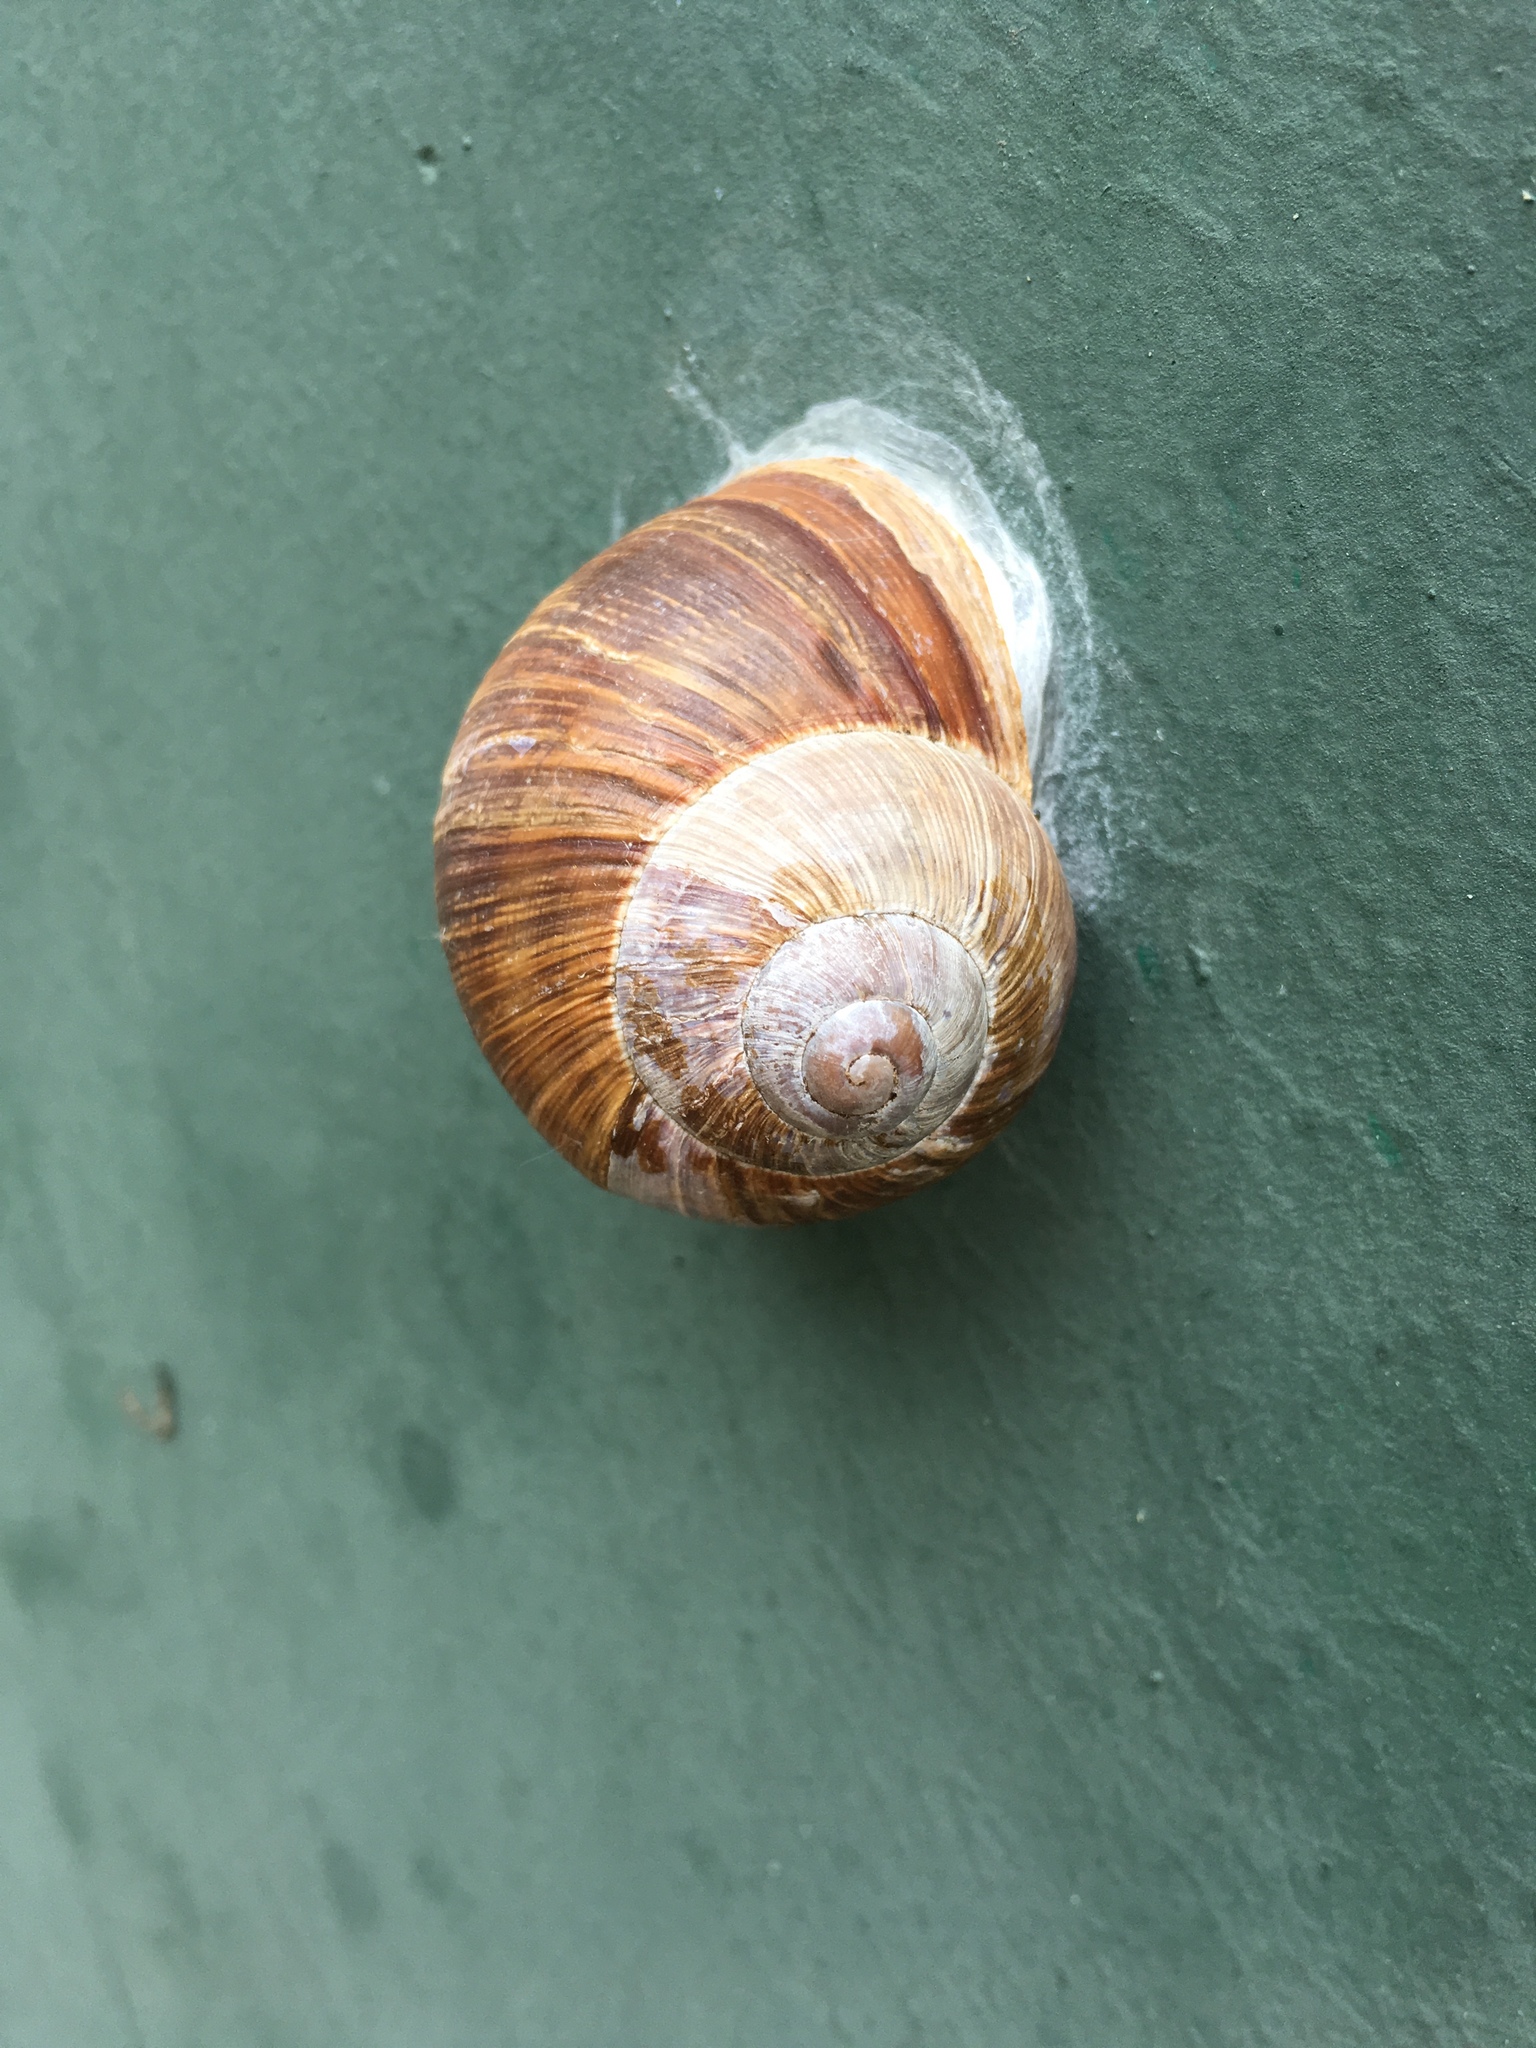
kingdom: Animalia
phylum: Mollusca
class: Gastropoda
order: Stylommatophora
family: Helicidae
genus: Helix
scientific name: Helix pomatia
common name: Roman snail
